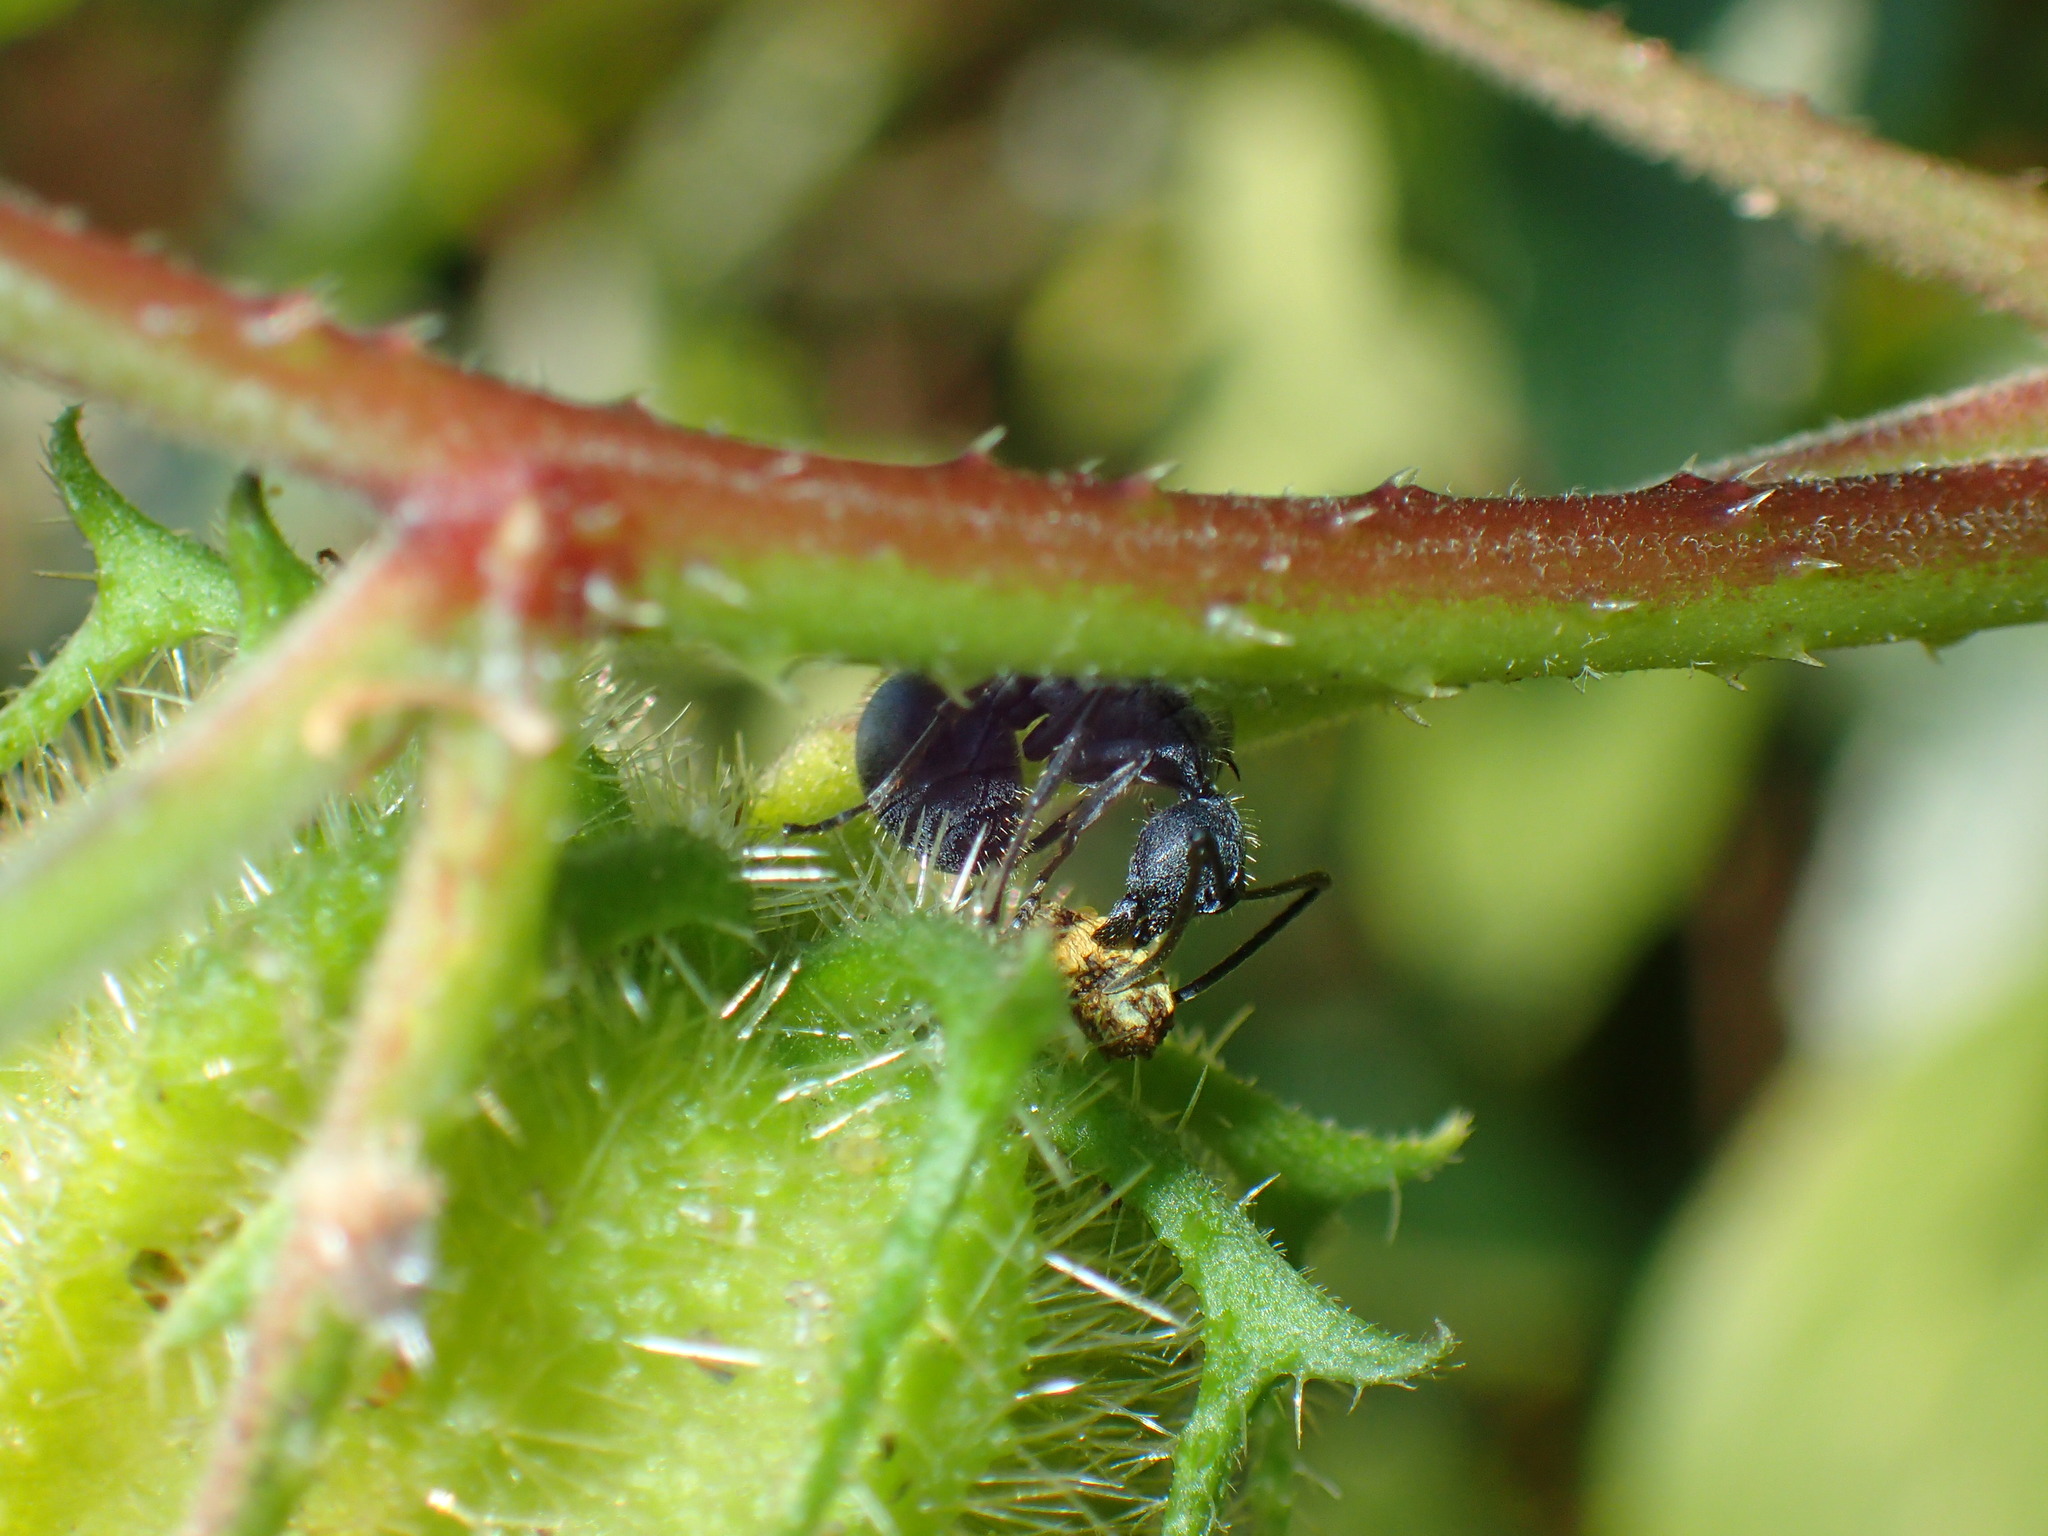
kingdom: Animalia
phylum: Arthropoda
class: Insecta
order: Hymenoptera
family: Formicidae
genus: Polyrhachis
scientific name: Polyrhachis schistacea
